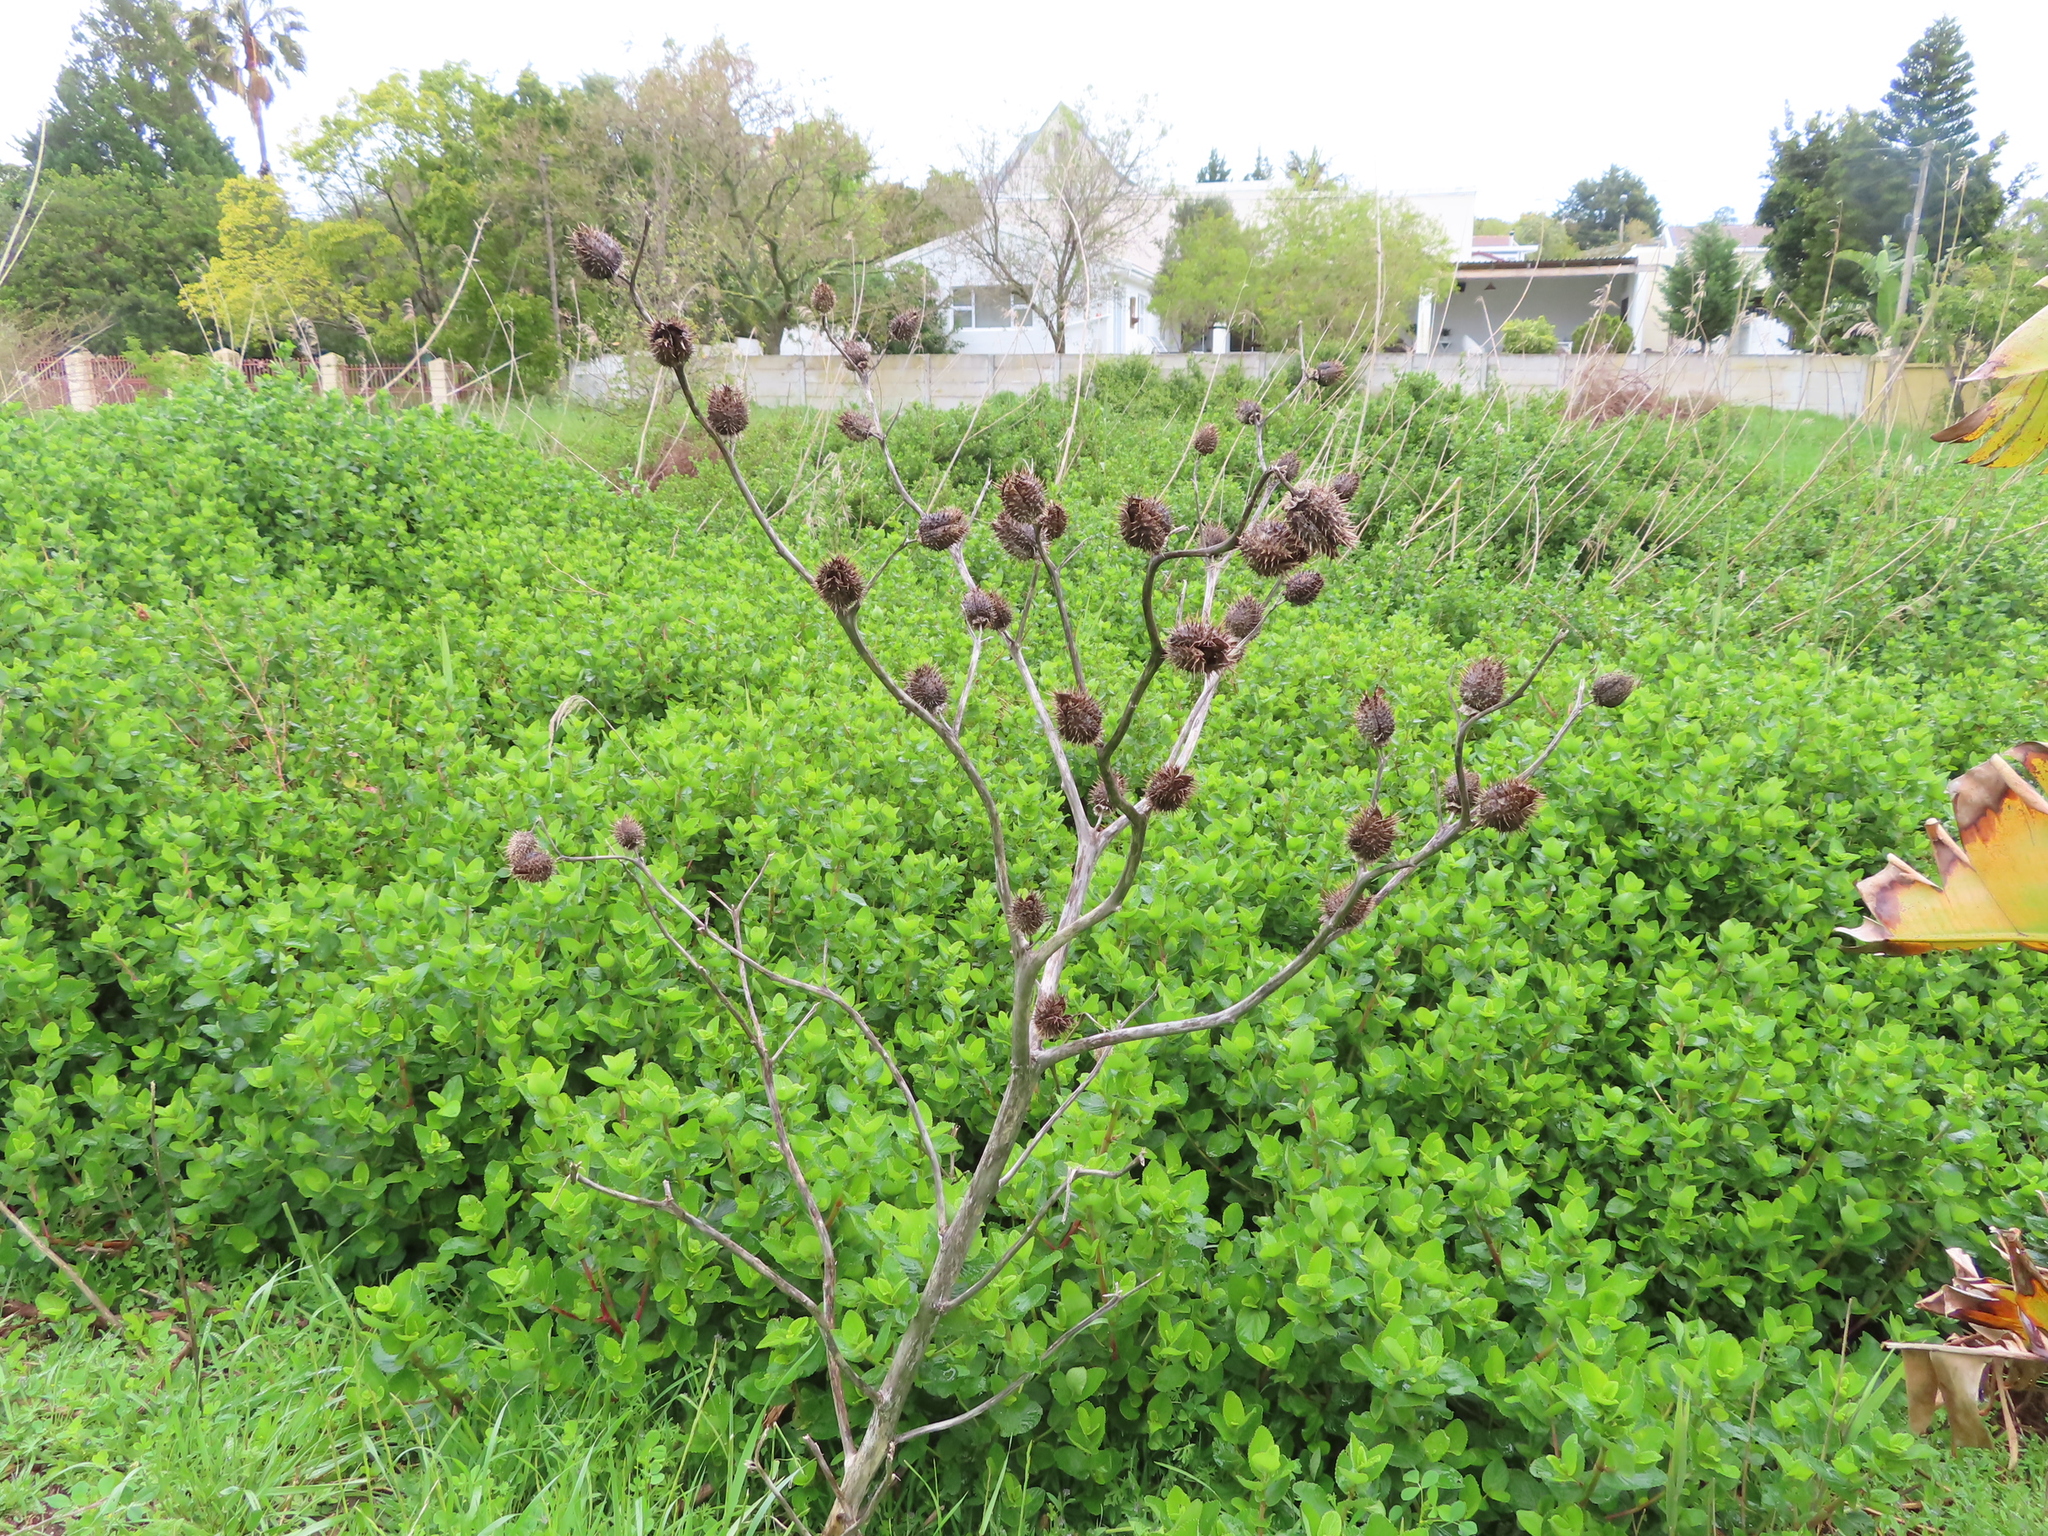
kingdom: Plantae
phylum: Tracheophyta
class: Magnoliopsida
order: Solanales
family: Solanaceae
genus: Datura
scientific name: Datura stramonium
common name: Thorn-apple
